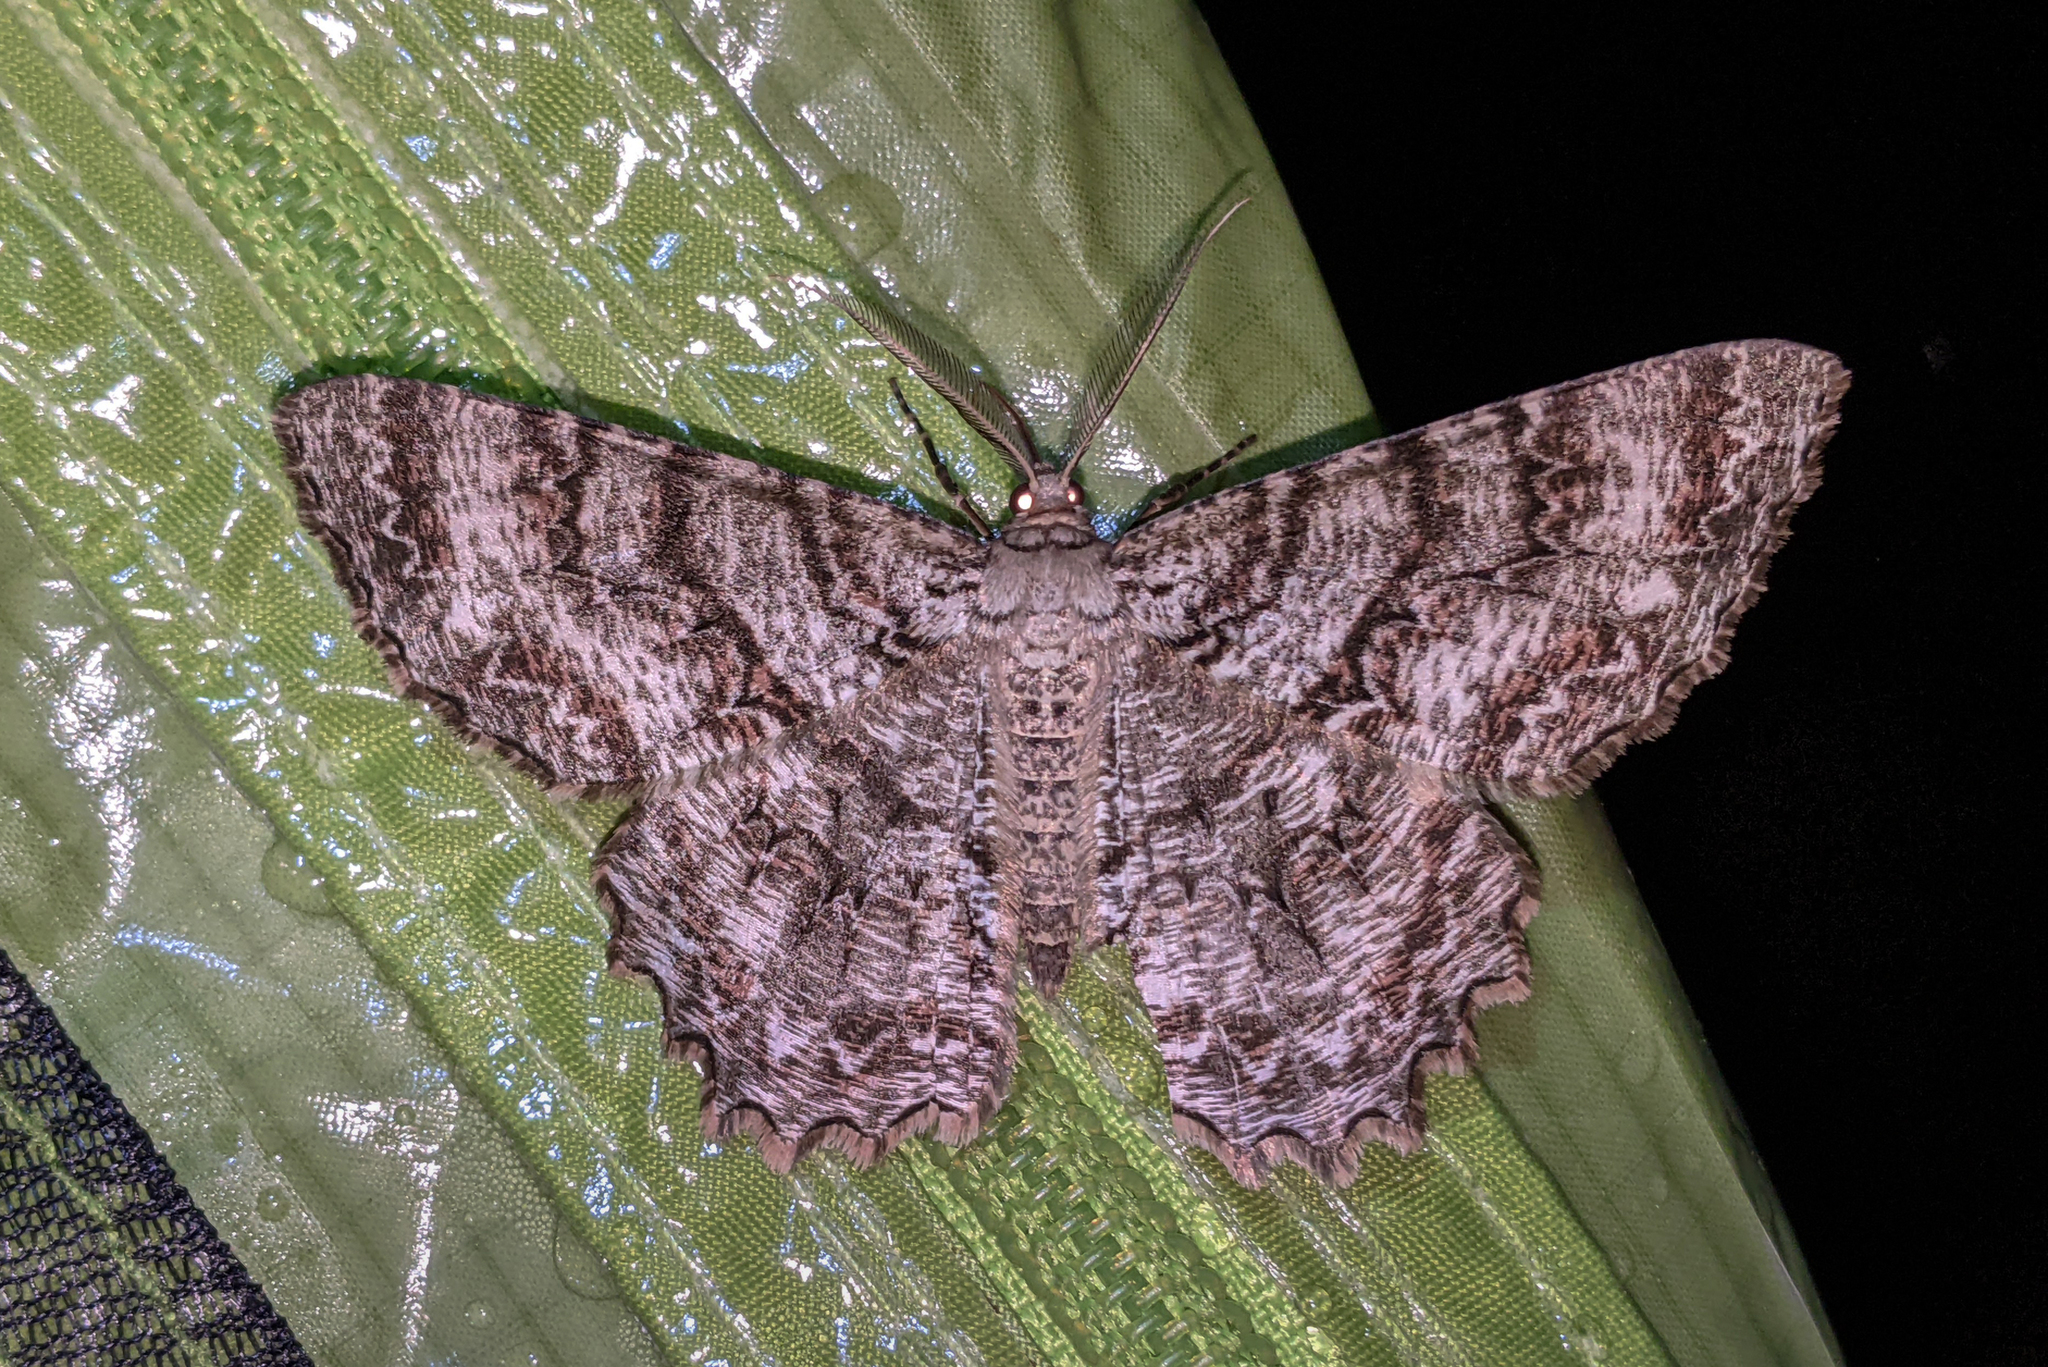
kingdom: Animalia
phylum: Arthropoda
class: Insecta
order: Lepidoptera
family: Geometridae
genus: Epimecis
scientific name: Epimecis hortaria
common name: Tulip-tree beauty
